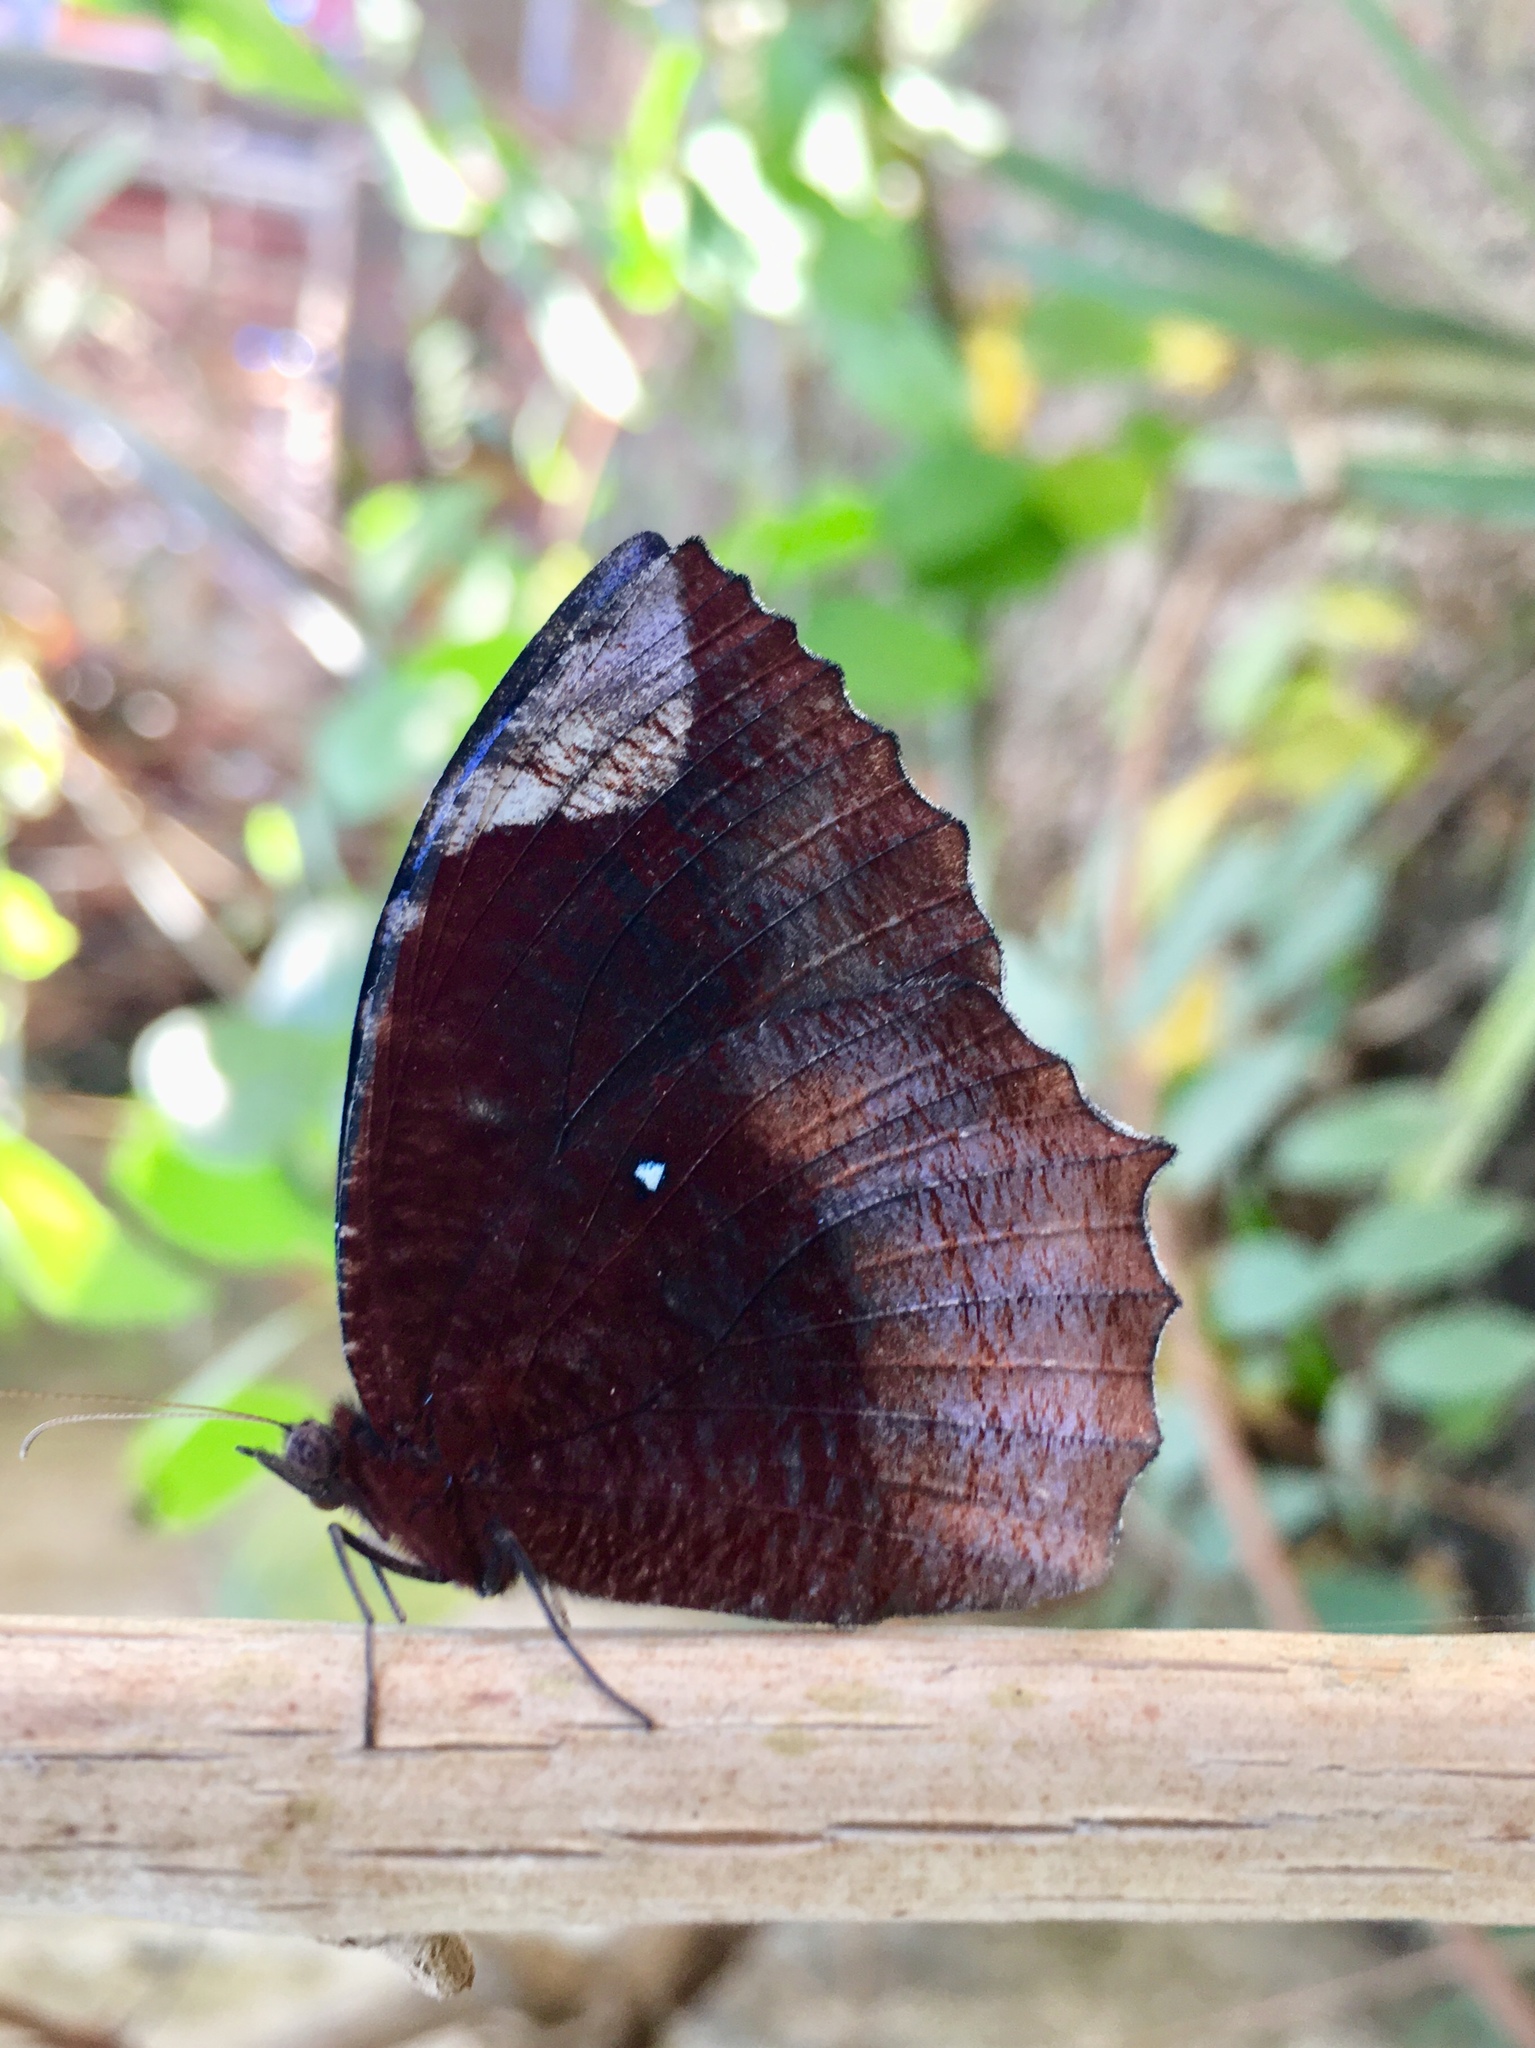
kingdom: Animalia
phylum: Arthropoda
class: Insecta
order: Lepidoptera
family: Nymphalidae
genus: Elymnias
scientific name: Elymnias hypermnestra
